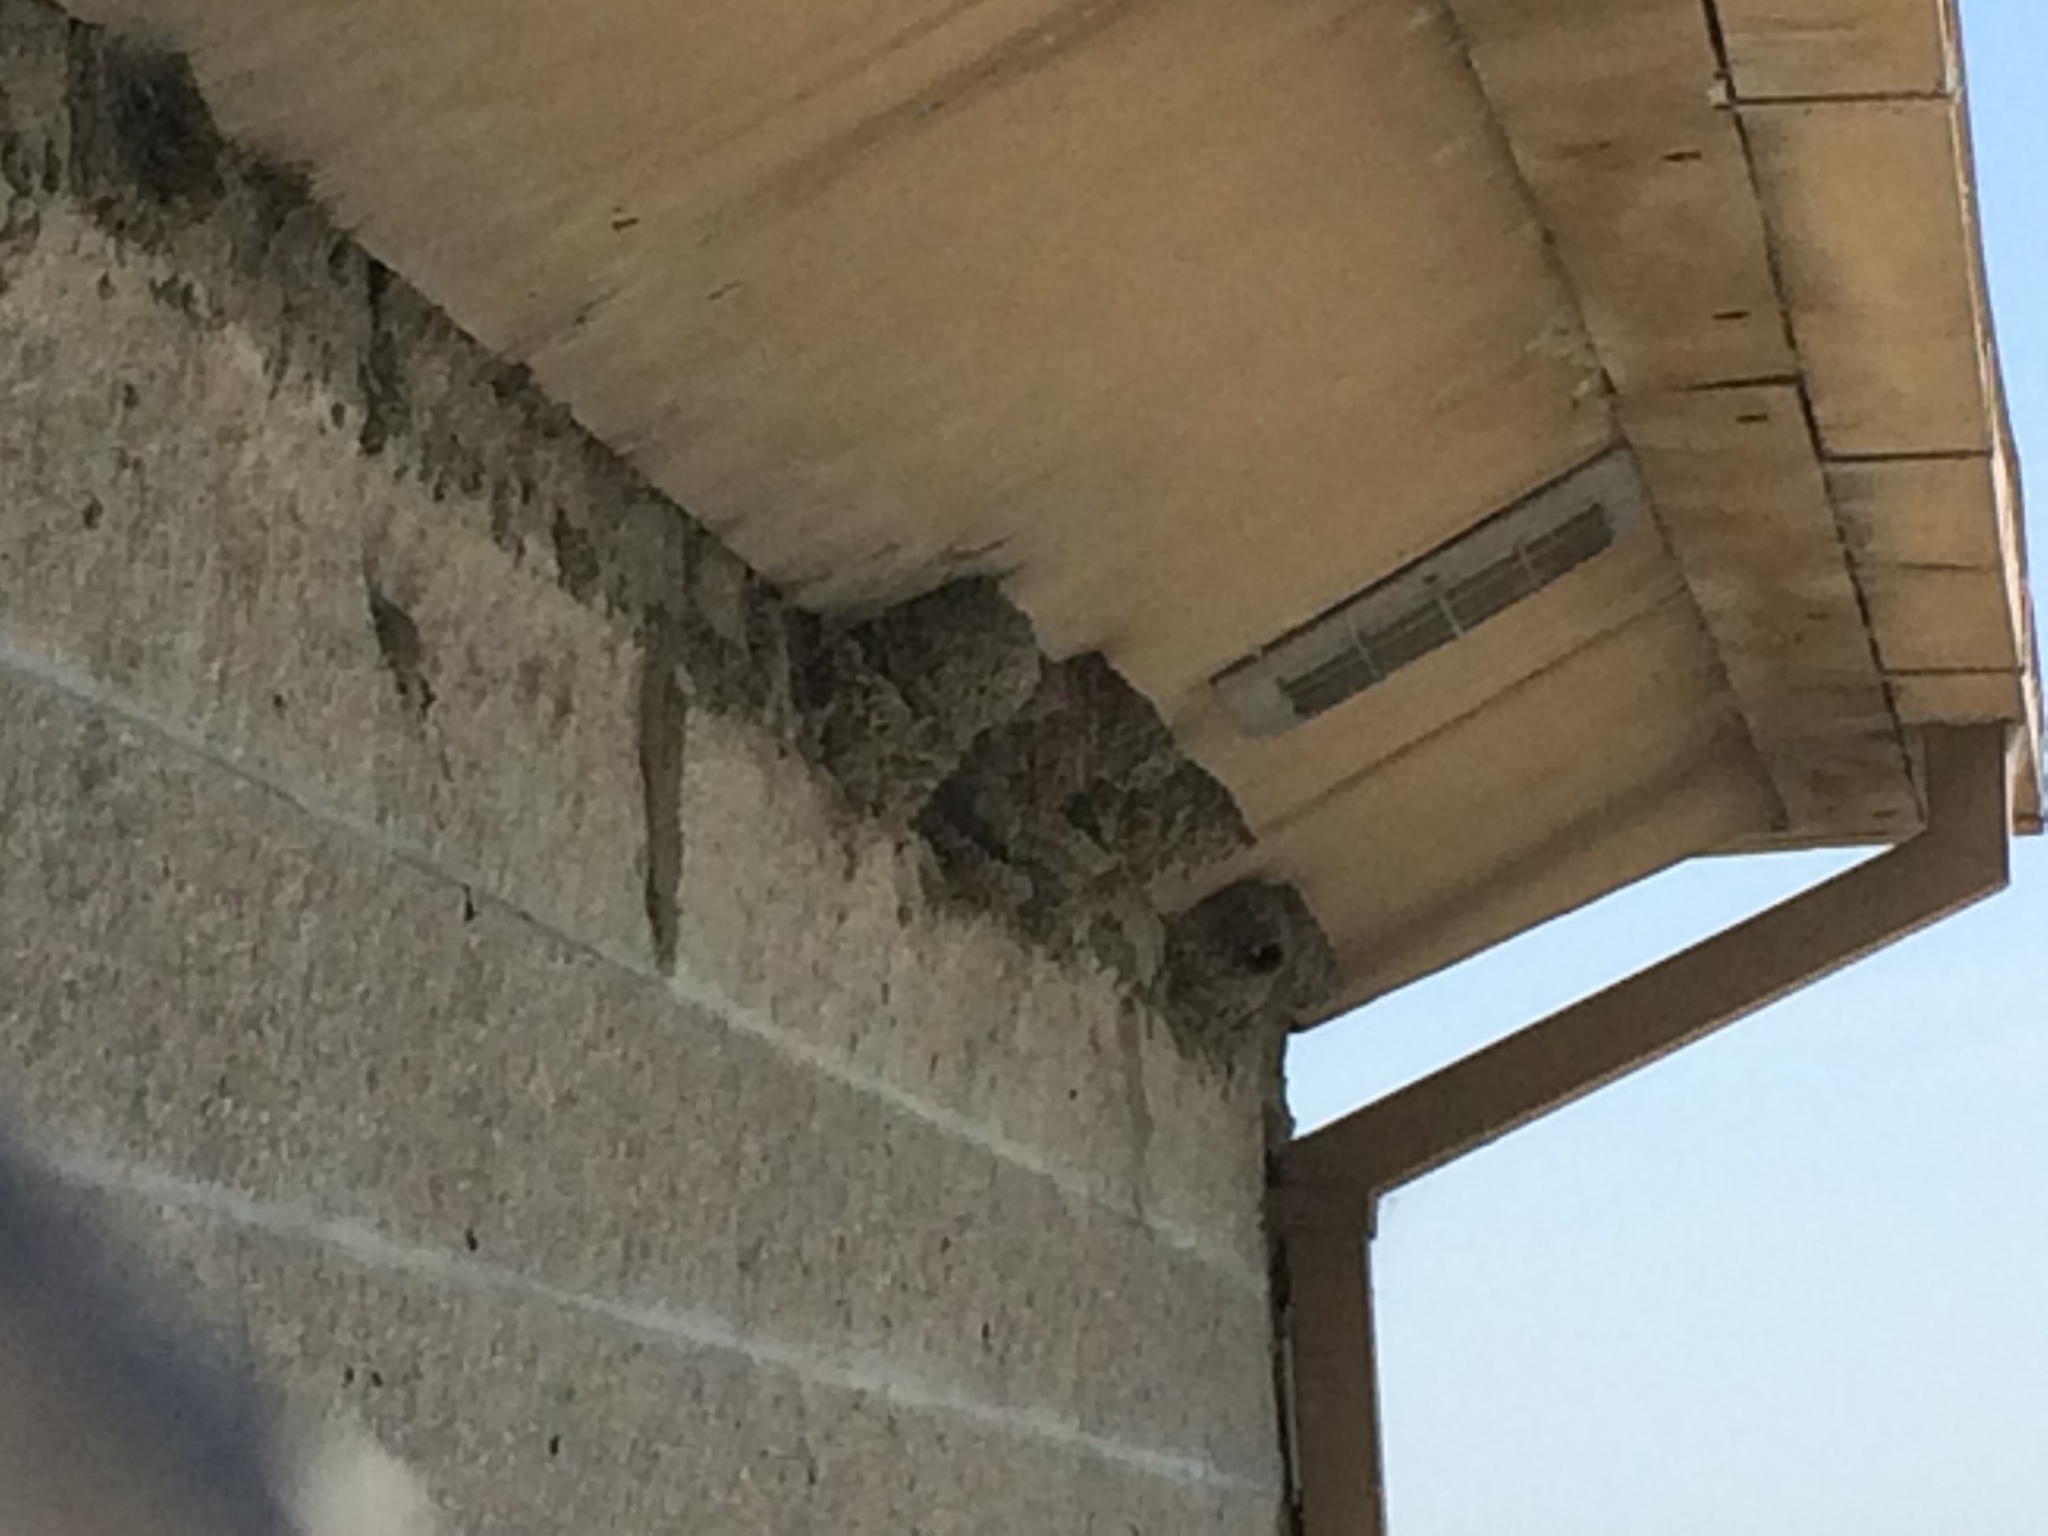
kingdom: Animalia
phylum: Chordata
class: Aves
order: Passeriformes
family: Hirundinidae
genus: Hirundo
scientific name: Hirundo rustica
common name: Barn swallow
